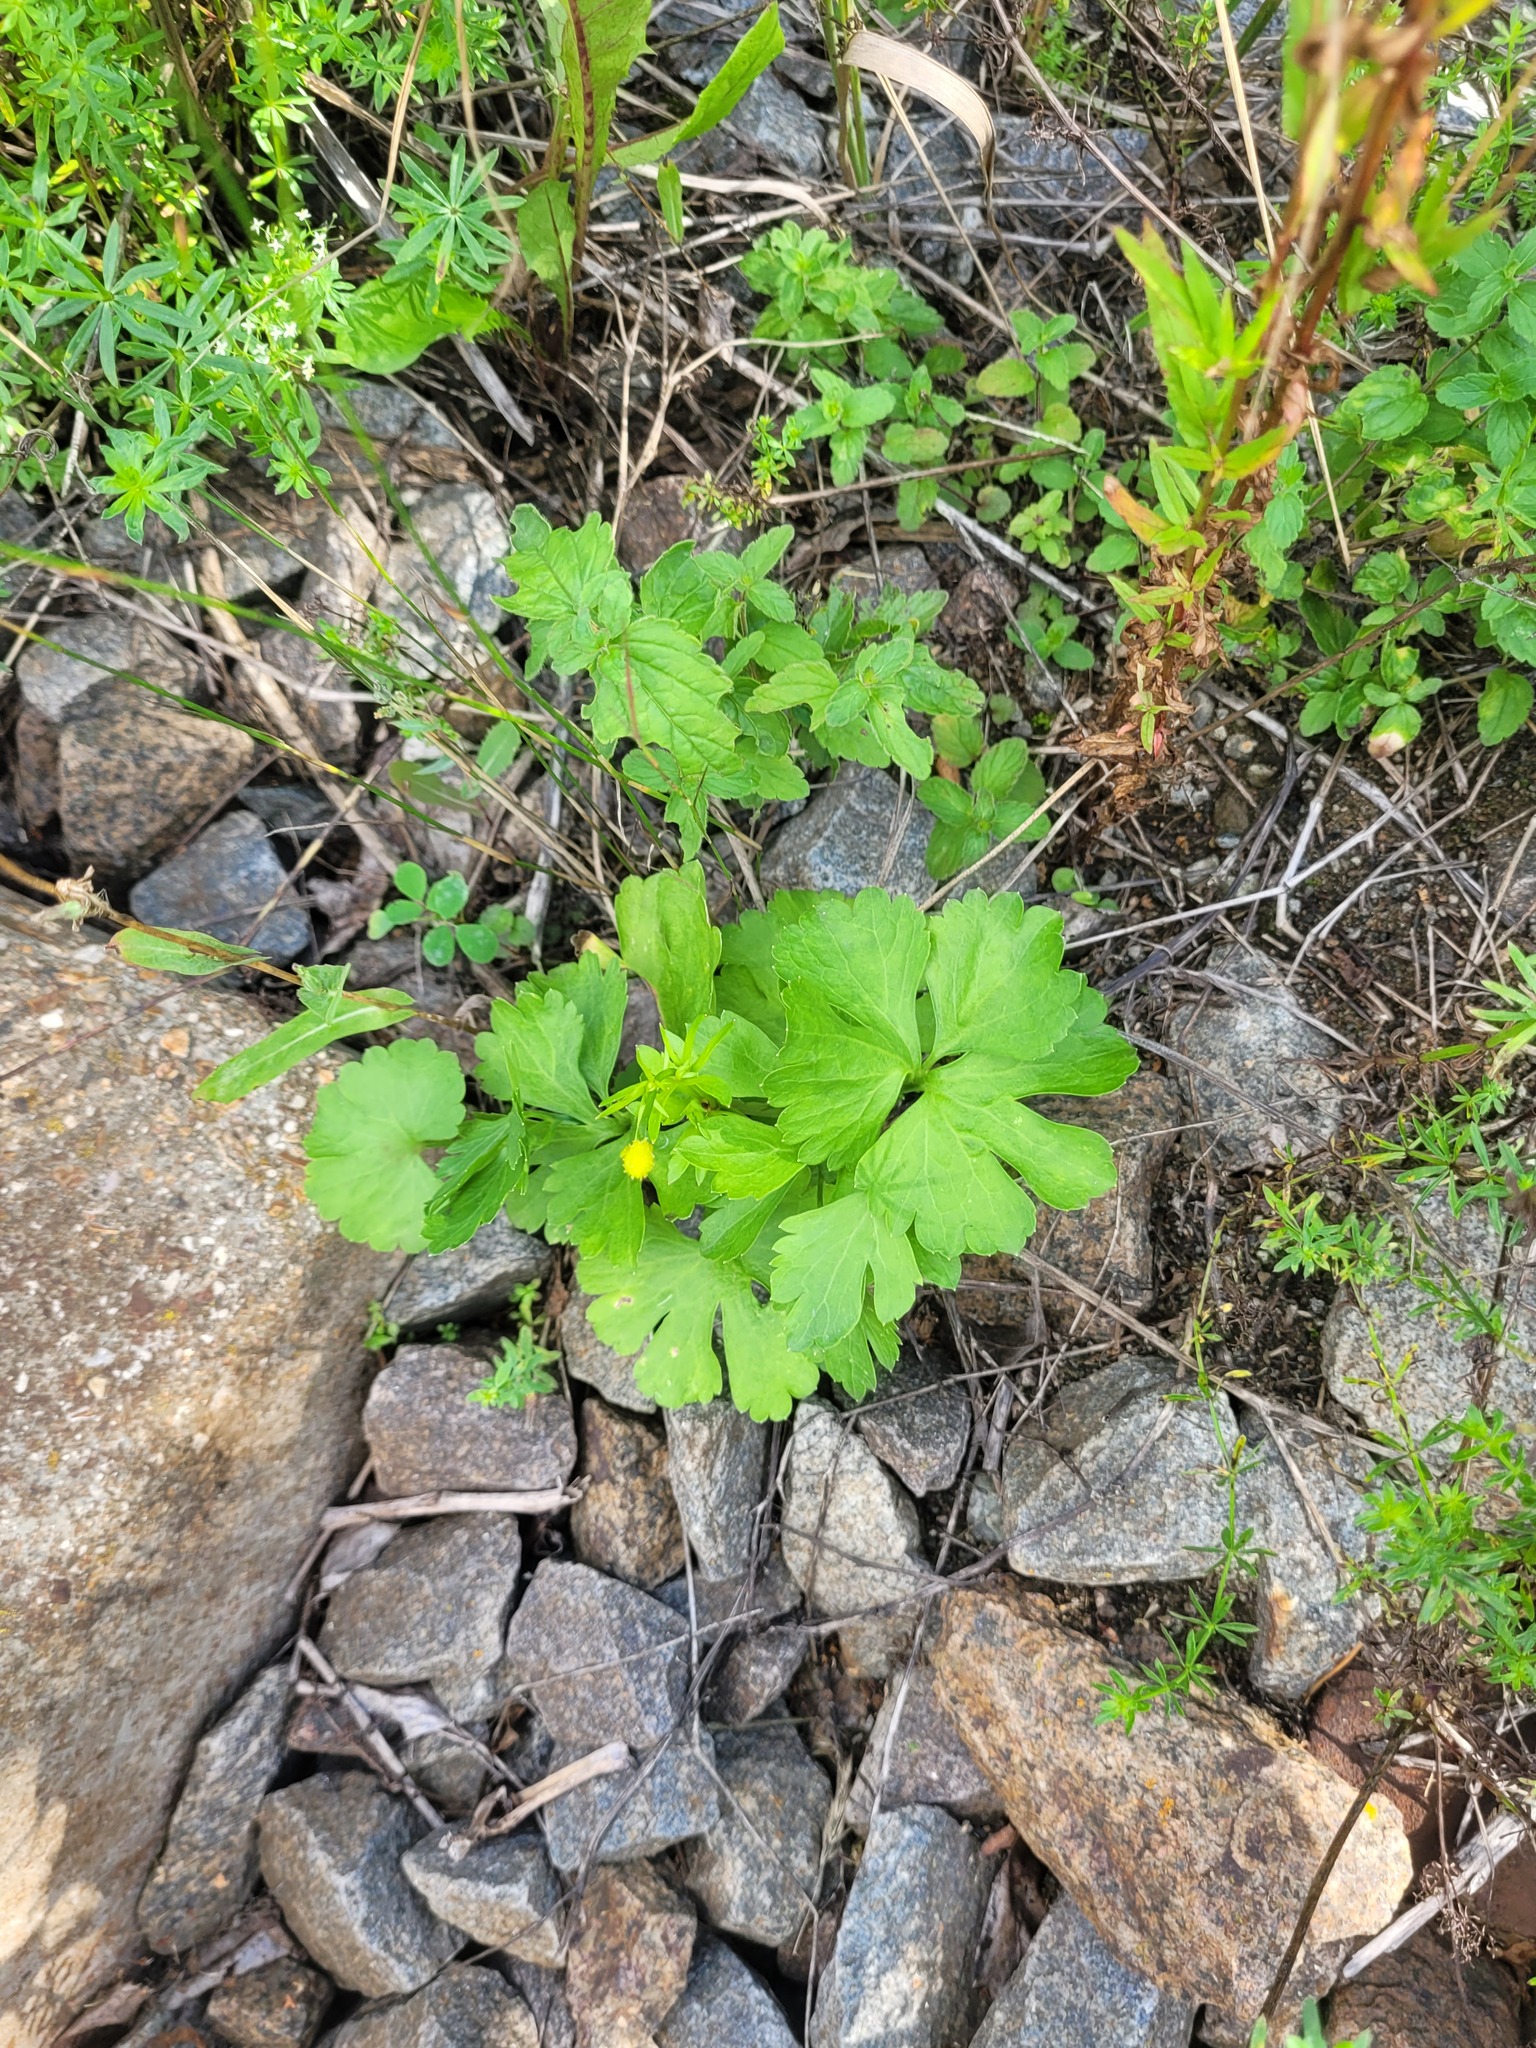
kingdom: Plantae
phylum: Tracheophyta
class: Magnoliopsida
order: Ranunculales
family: Ranunculaceae
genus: Ranunculus
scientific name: Ranunculus auricomus
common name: Goldilocks buttercup
